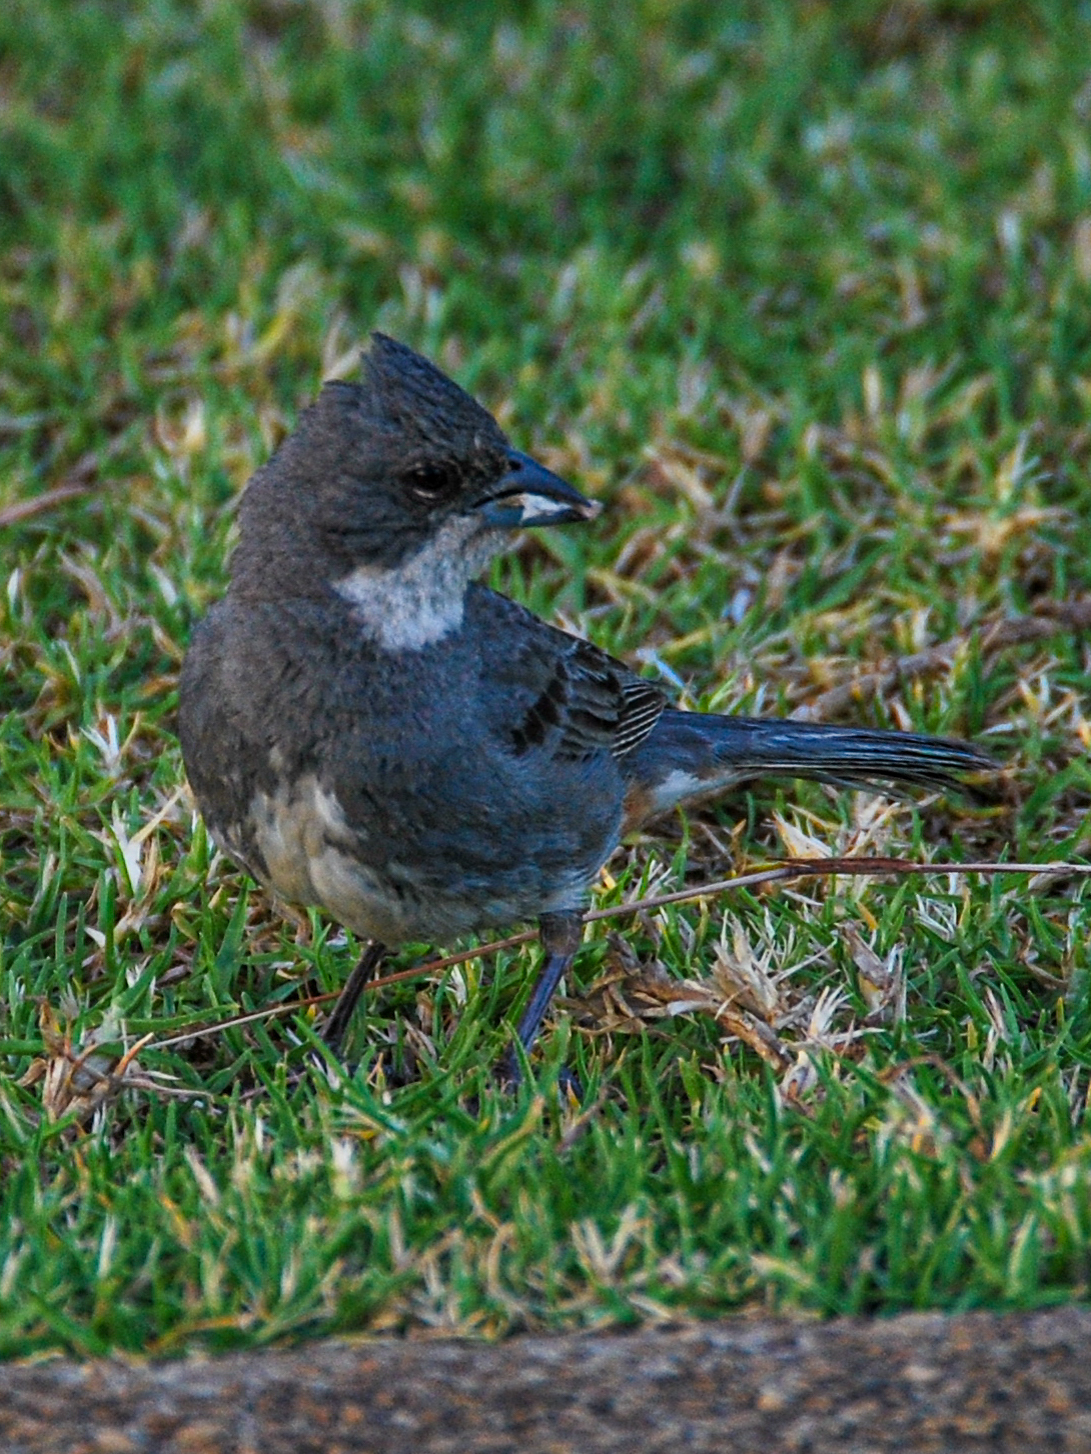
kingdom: Animalia
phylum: Chordata
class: Aves
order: Passeriformes
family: Thraupidae
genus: Diuca
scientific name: Diuca diuca
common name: Common diuca finch
